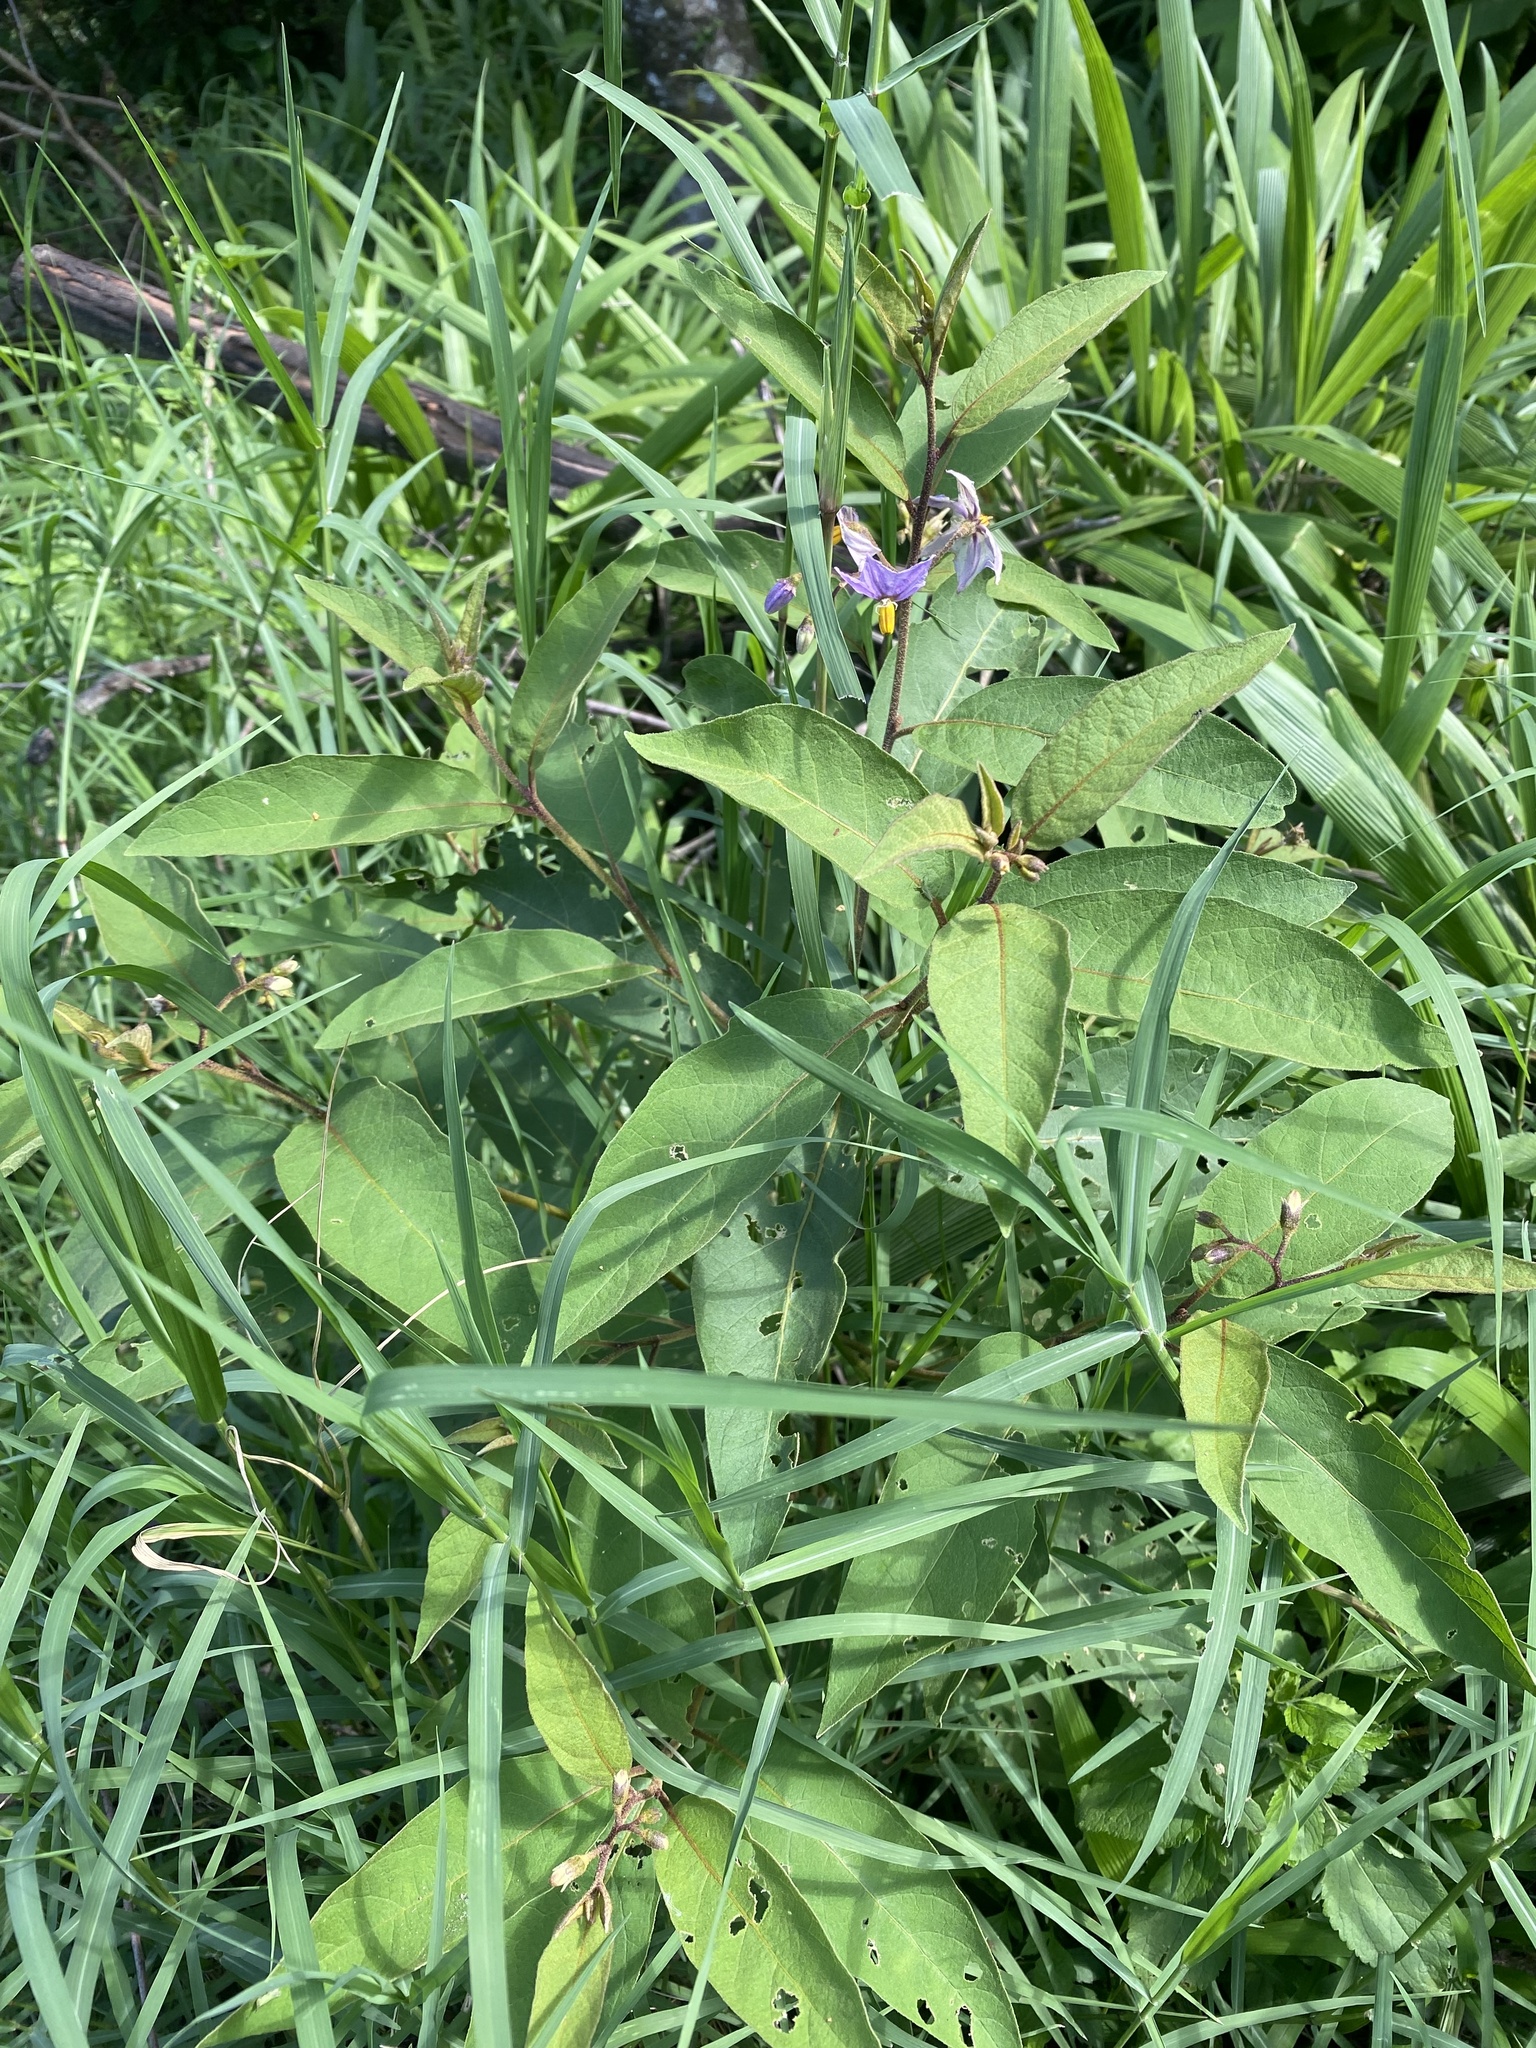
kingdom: Plantae
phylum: Tracheophyta
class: Magnoliopsida
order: Solanales
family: Solanaceae
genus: Solanum
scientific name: Solanum campylacanthum
